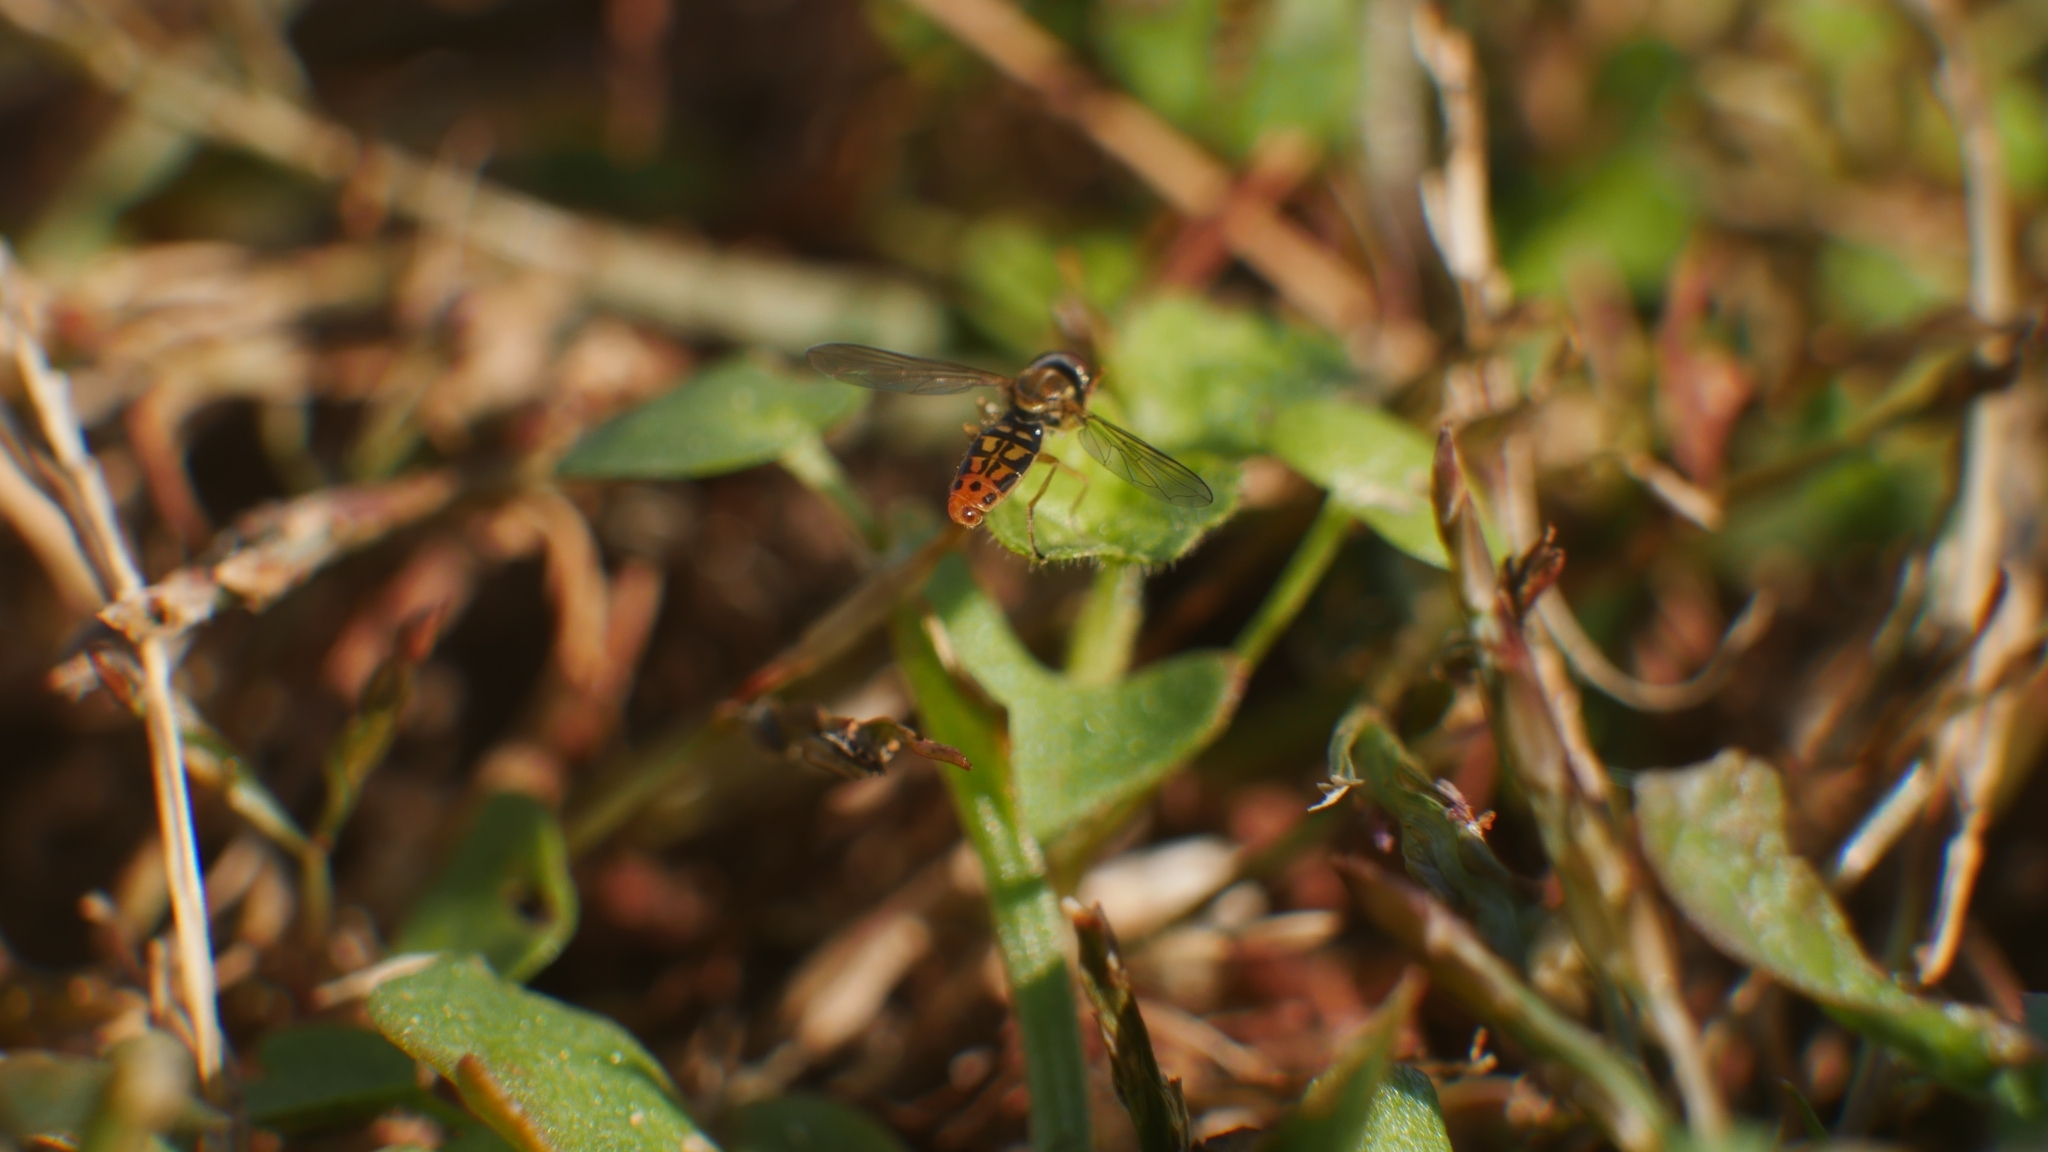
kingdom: Animalia
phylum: Arthropoda
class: Insecta
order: Diptera
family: Syrphidae
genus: Toxomerus
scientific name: Toxomerus marginatus
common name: Syrphid fly
